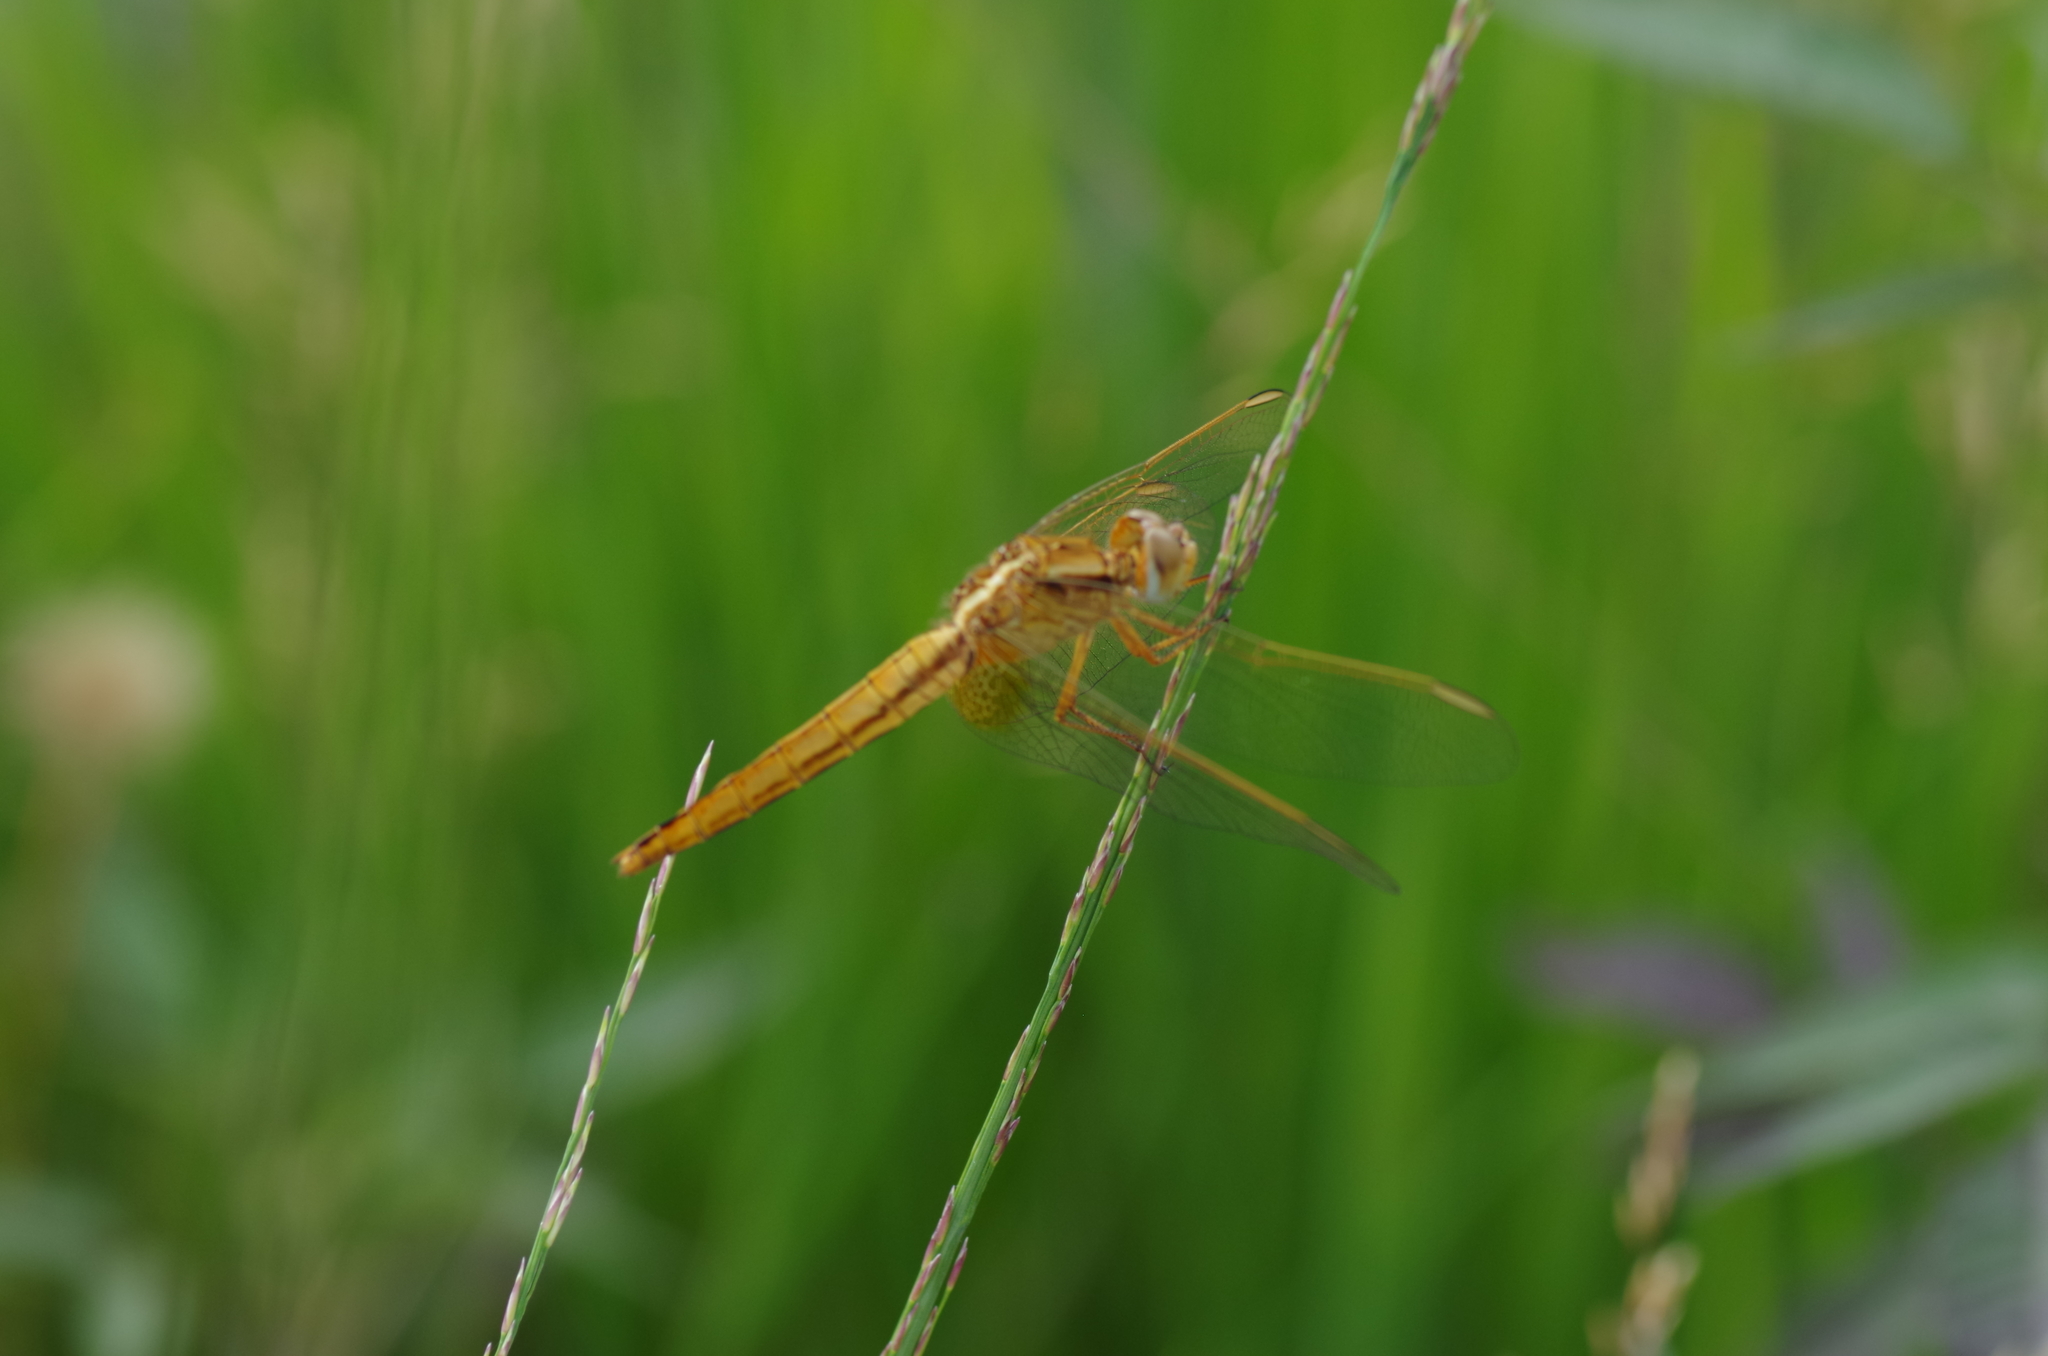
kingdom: Animalia
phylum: Arthropoda
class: Insecta
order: Odonata
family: Libellulidae
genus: Crocothemis
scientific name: Crocothemis erythraea
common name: Scarlet dragonfly
